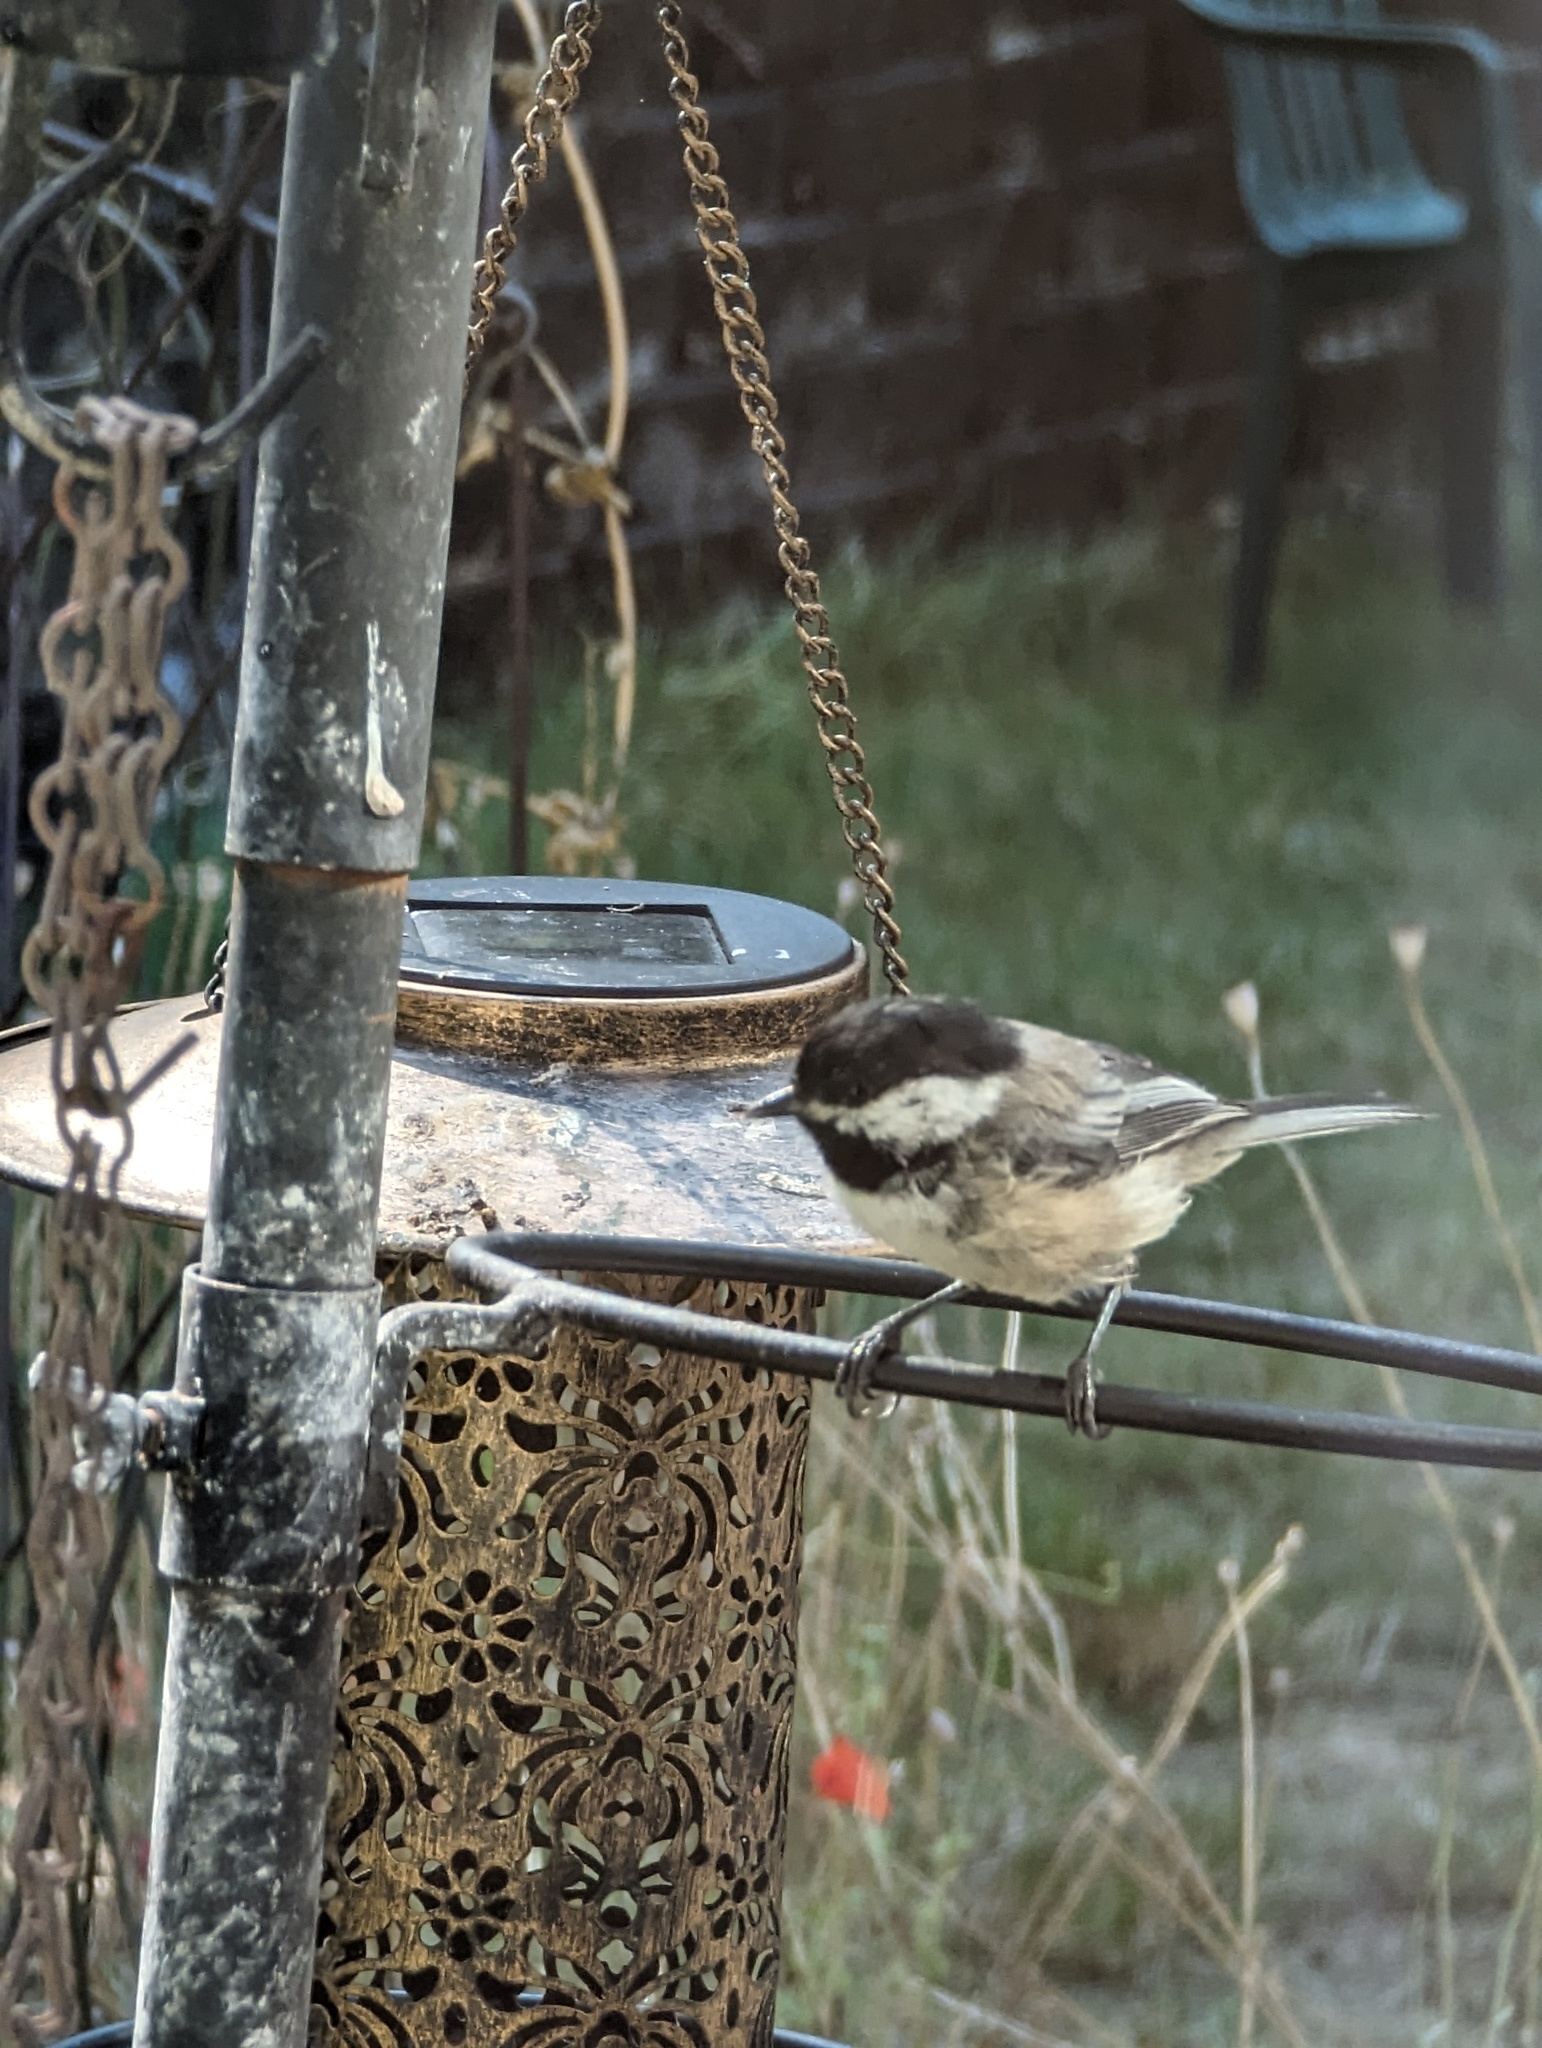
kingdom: Animalia
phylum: Chordata
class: Aves
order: Passeriformes
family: Paridae
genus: Poecile
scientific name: Poecile atricapillus
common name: Black-capped chickadee
